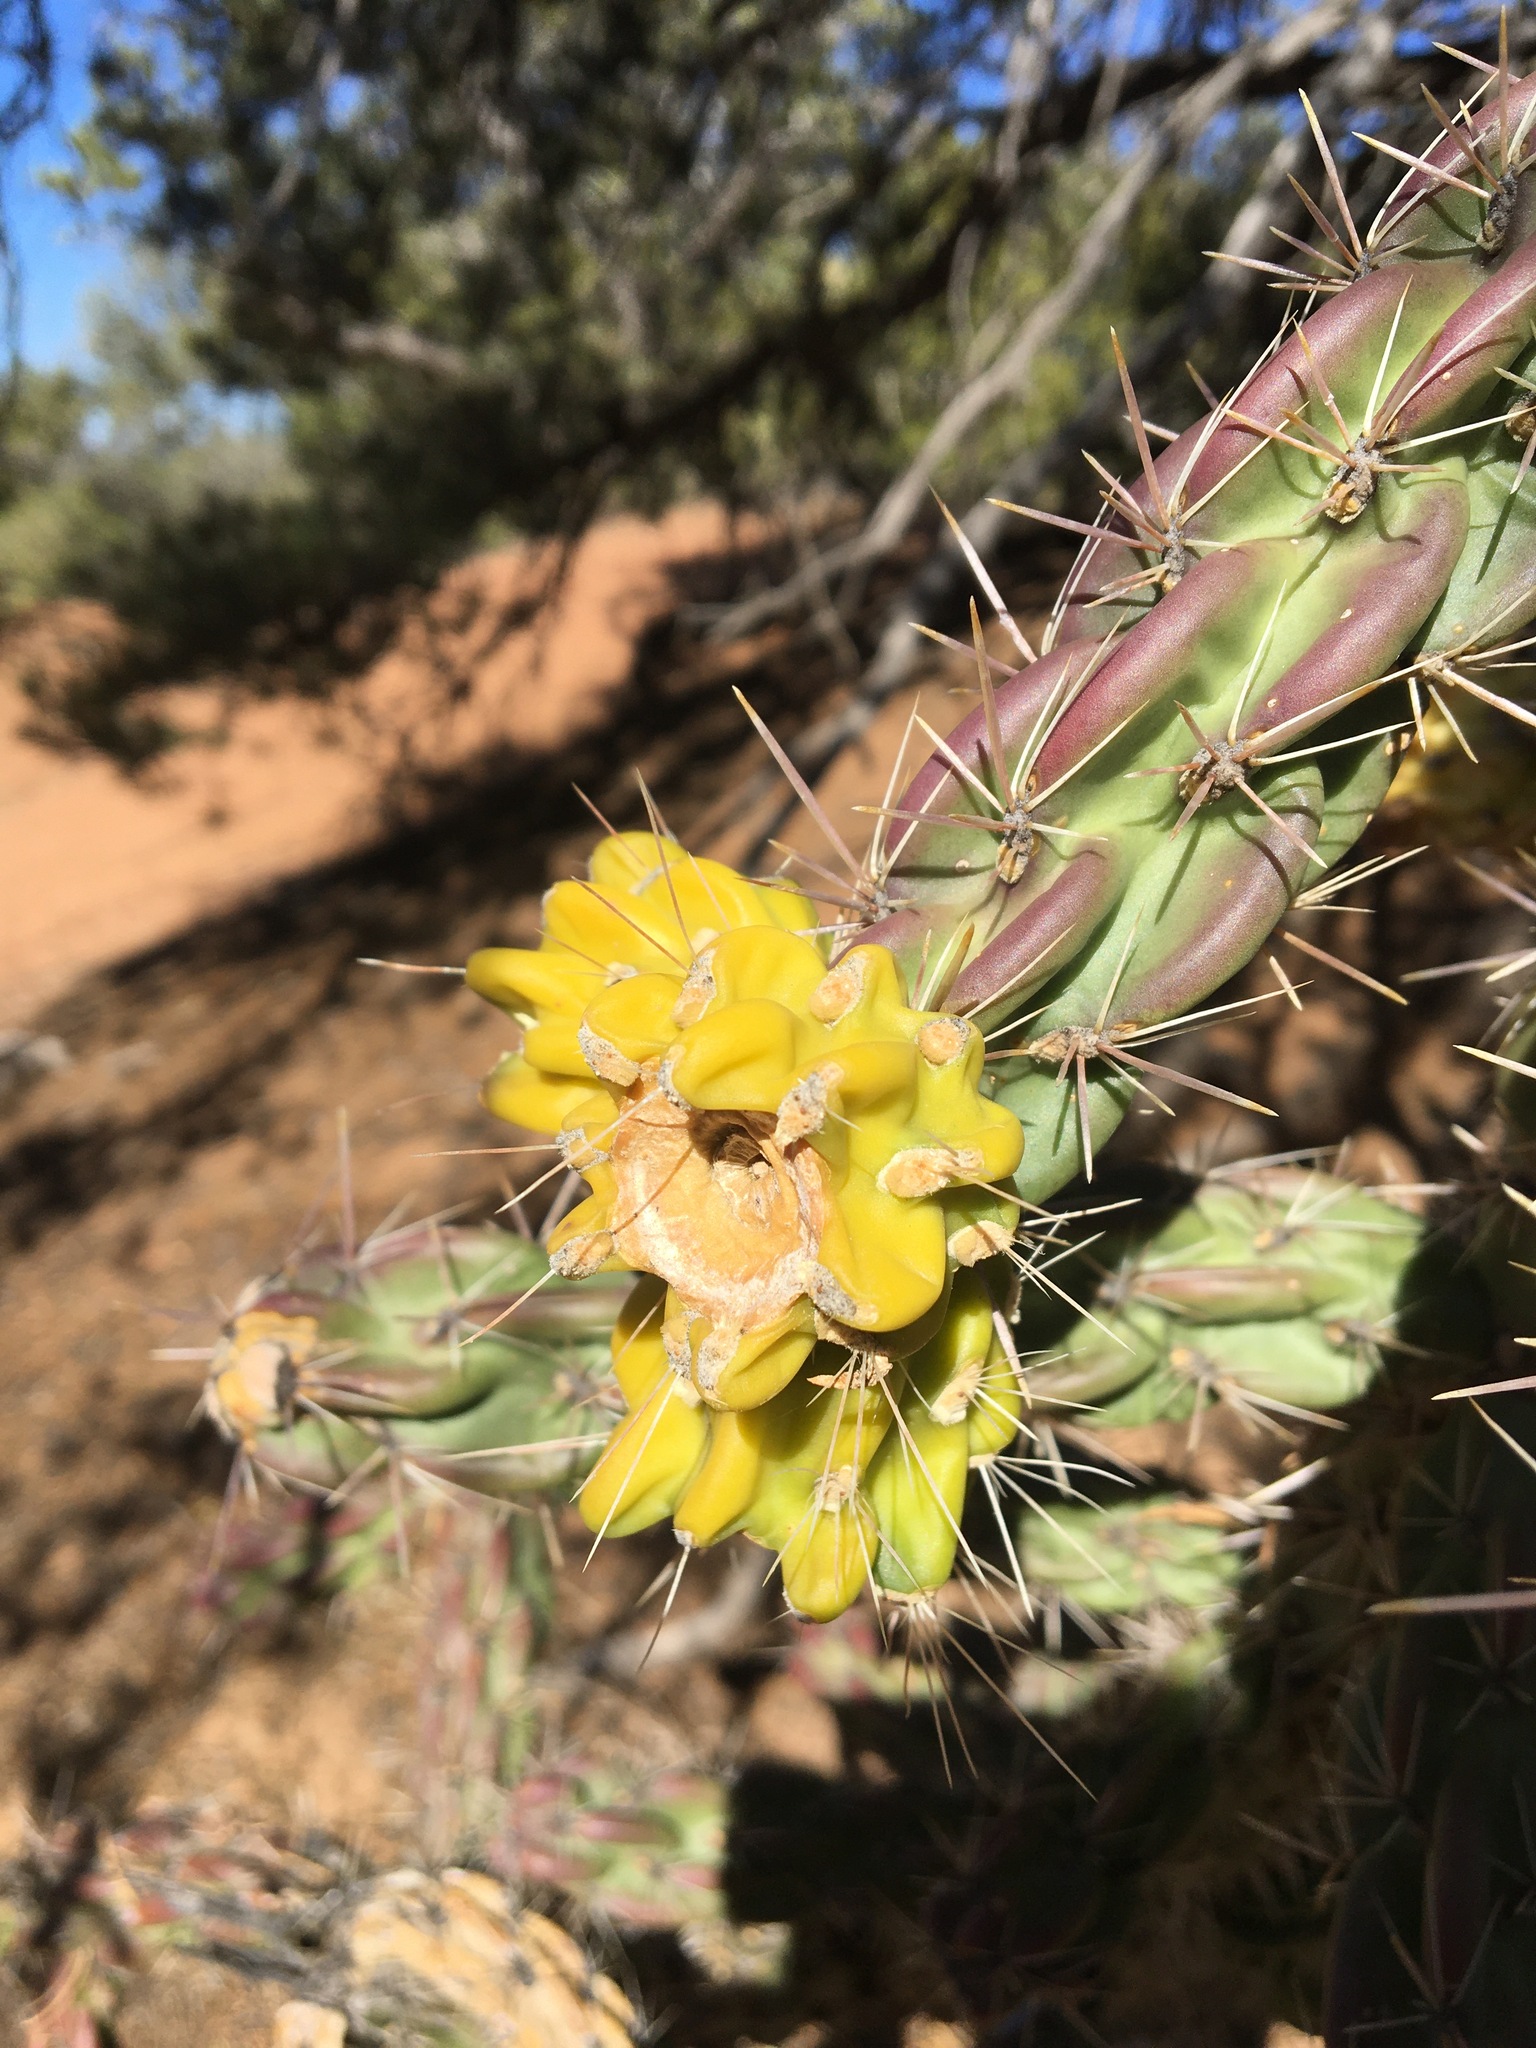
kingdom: Plantae
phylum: Tracheophyta
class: Magnoliopsida
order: Caryophyllales
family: Cactaceae
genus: Cylindropuntia
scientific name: Cylindropuntia imbricata
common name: Candelabrum cactus
